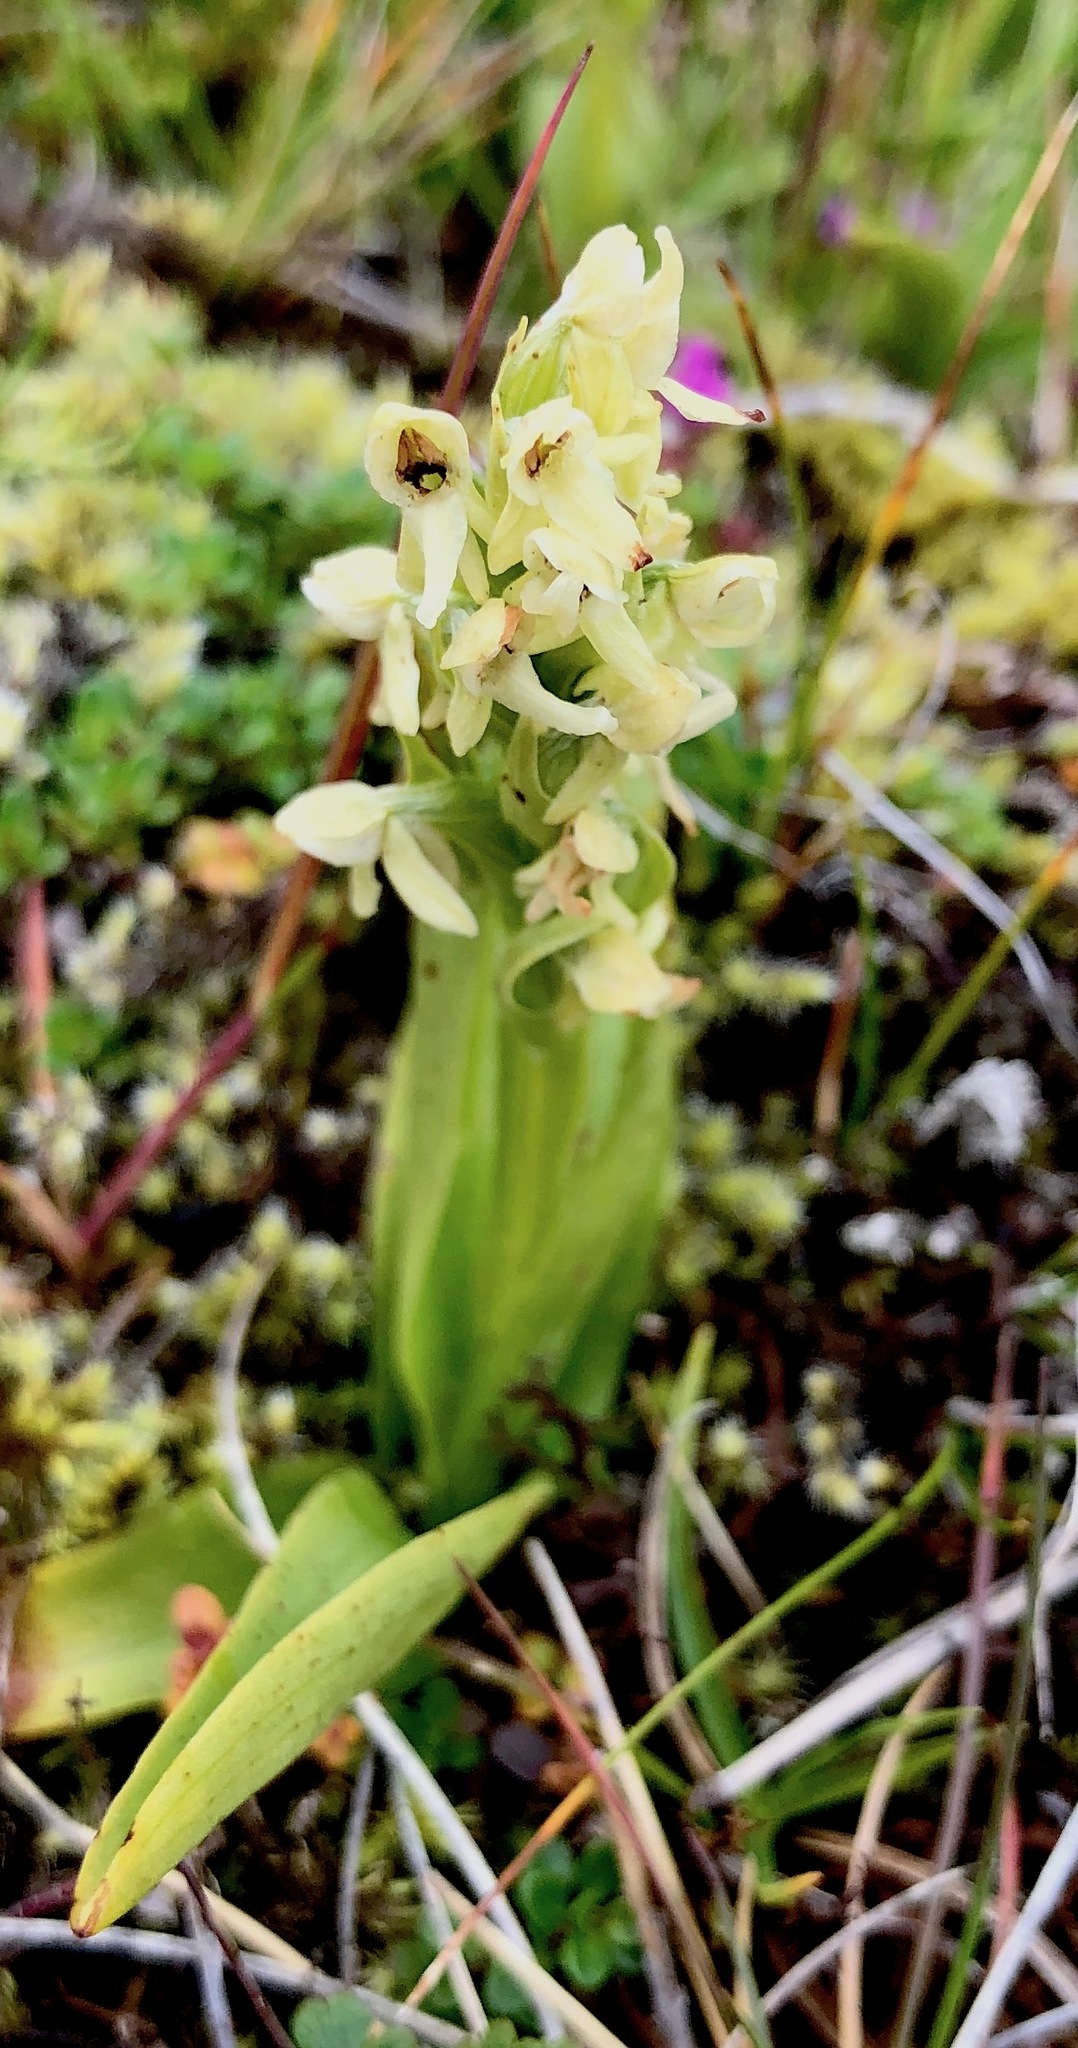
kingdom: Plantae
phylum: Tracheophyta
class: Liliopsida
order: Asparagales
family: Orchidaceae
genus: Platanthera
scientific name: Platanthera hyperborea
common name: Northern green orchid
